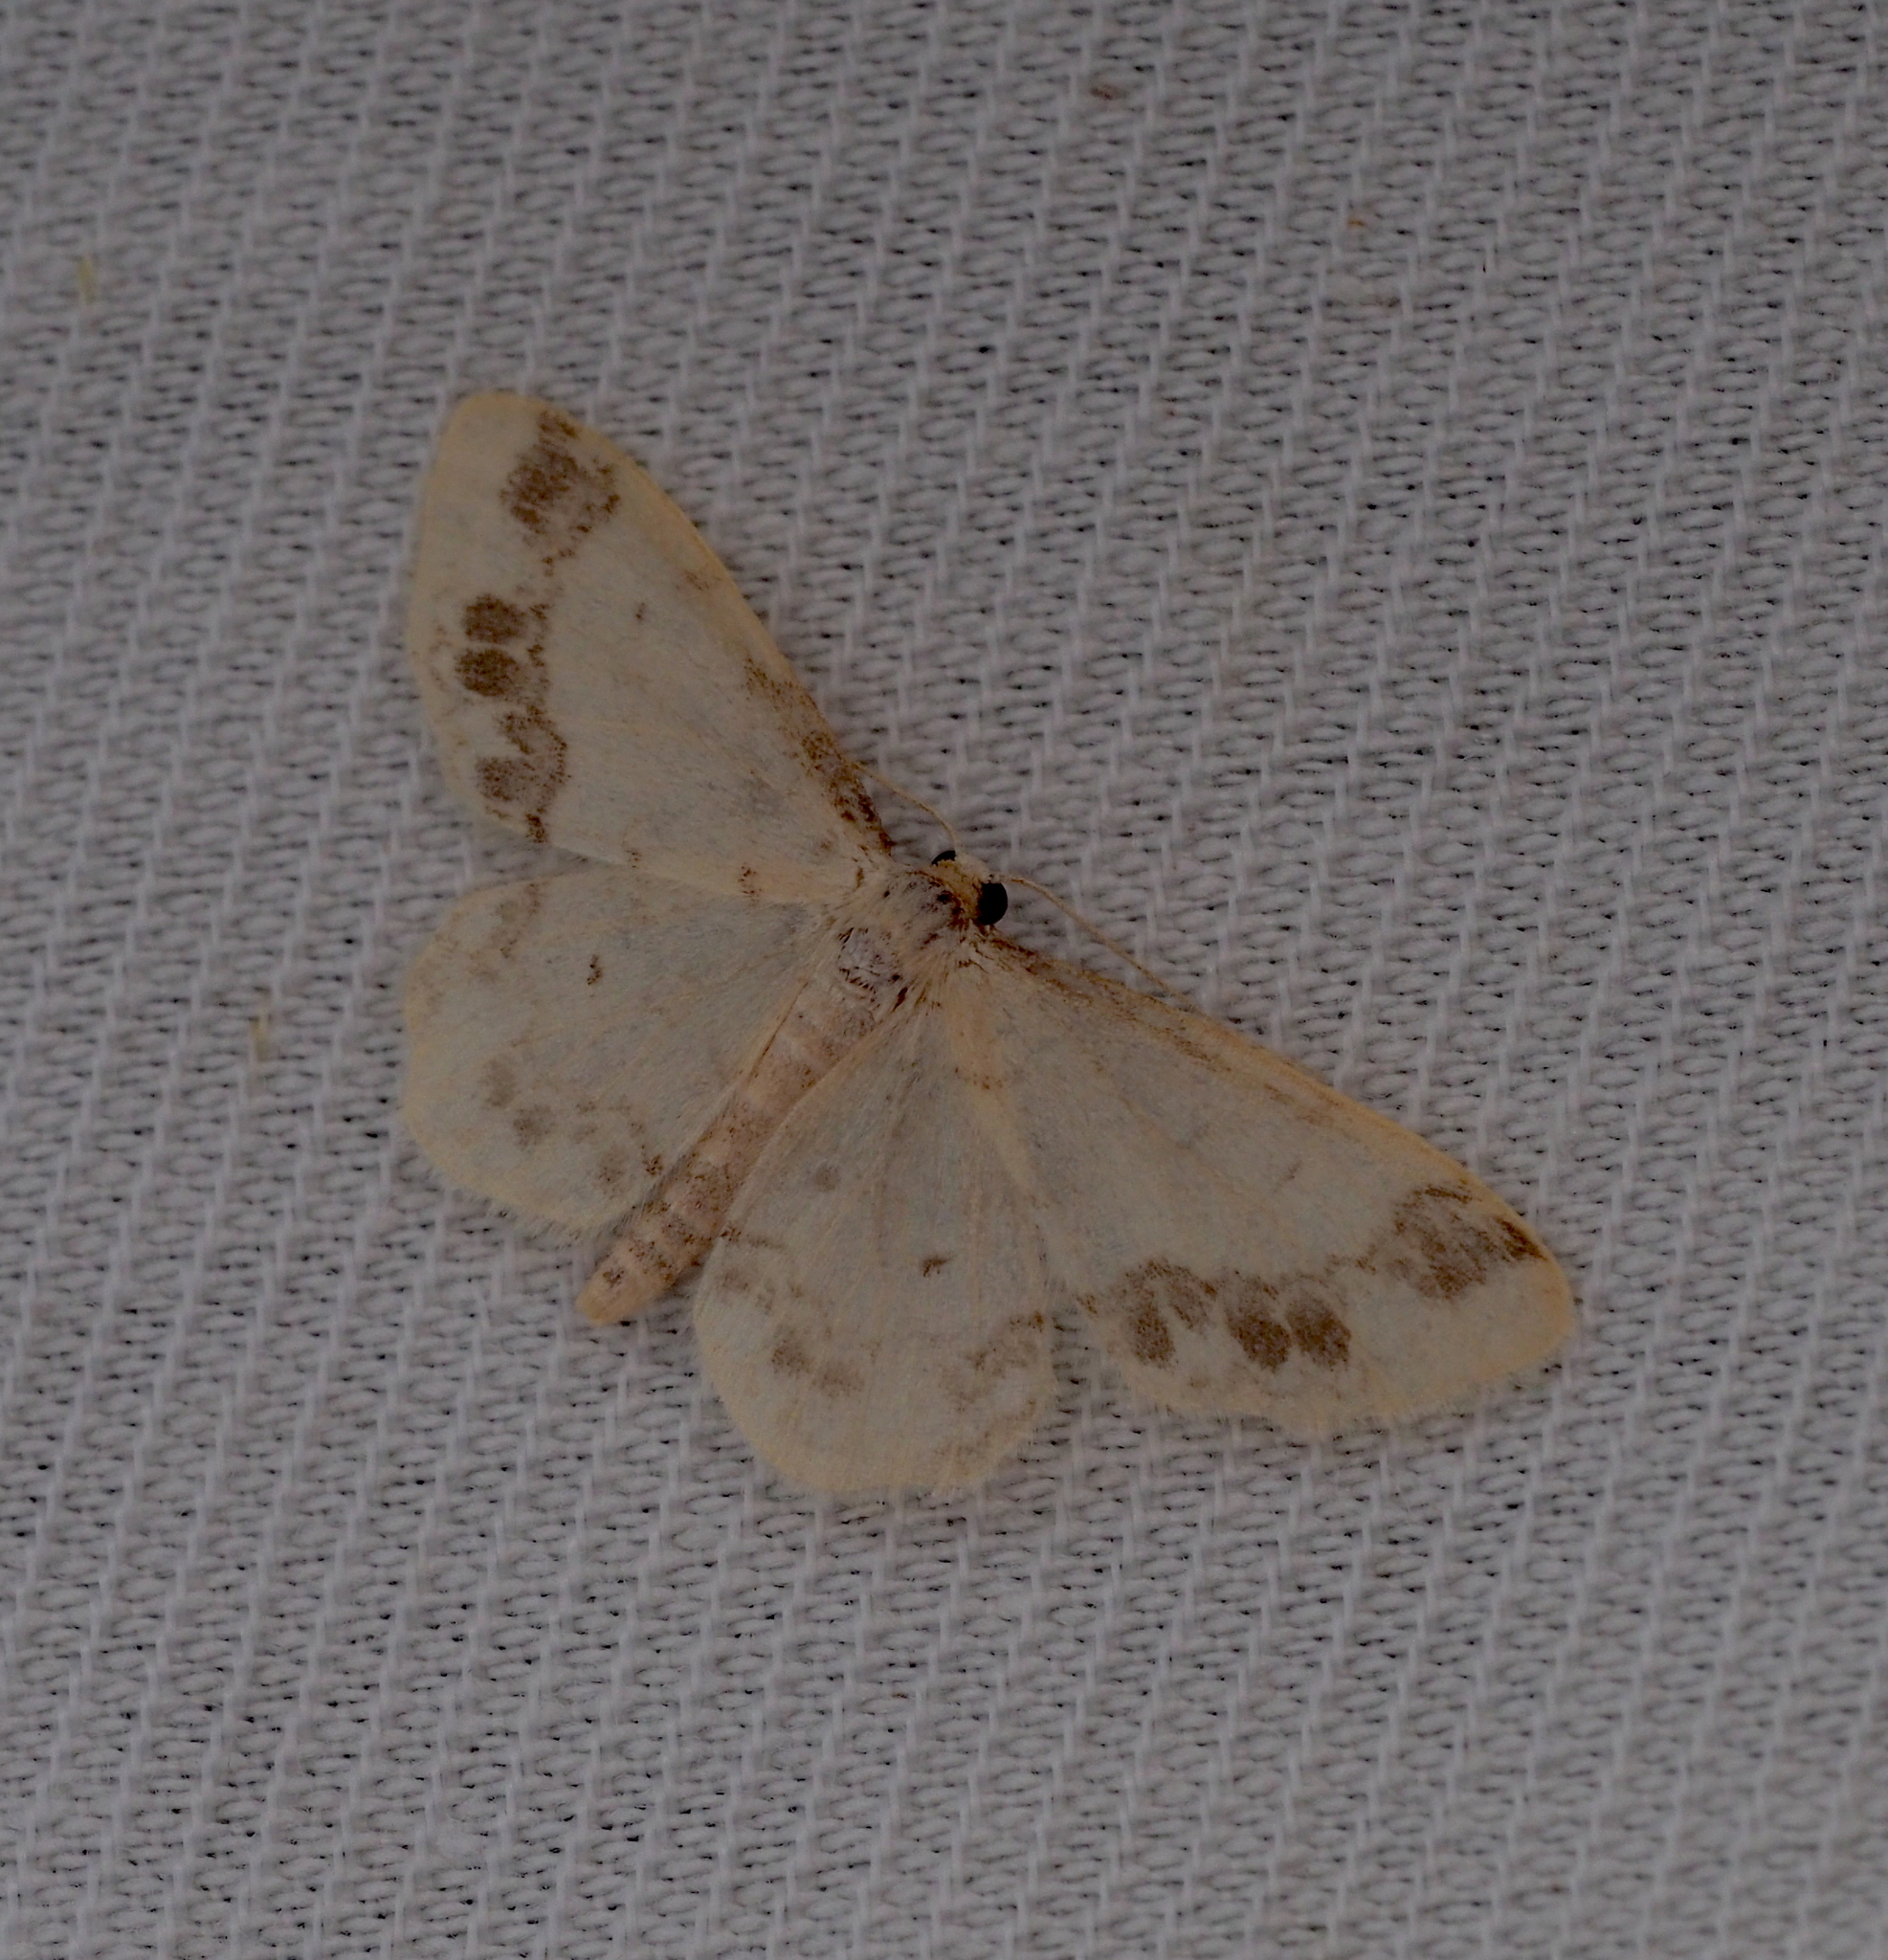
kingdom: Animalia
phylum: Arthropoda
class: Insecta
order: Lepidoptera
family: Geometridae
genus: Idaea
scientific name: Idaea trigeminata
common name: Treble brown spot
